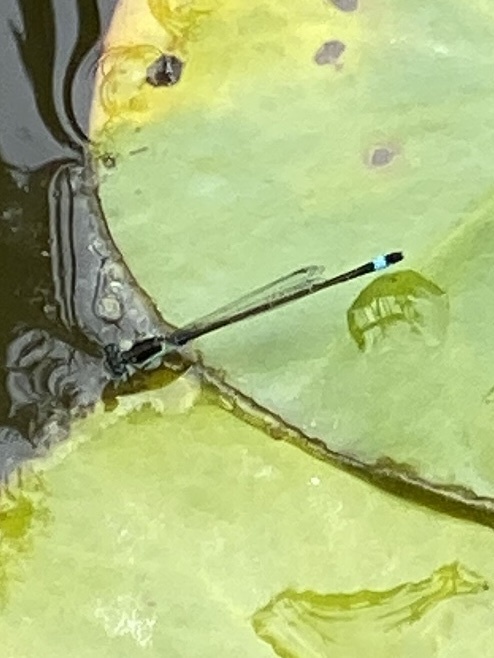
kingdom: Animalia
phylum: Arthropoda
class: Insecta
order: Odonata
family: Coenagrionidae
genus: Ischnura
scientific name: Ischnura senegalensis
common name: Tropical bluetail
